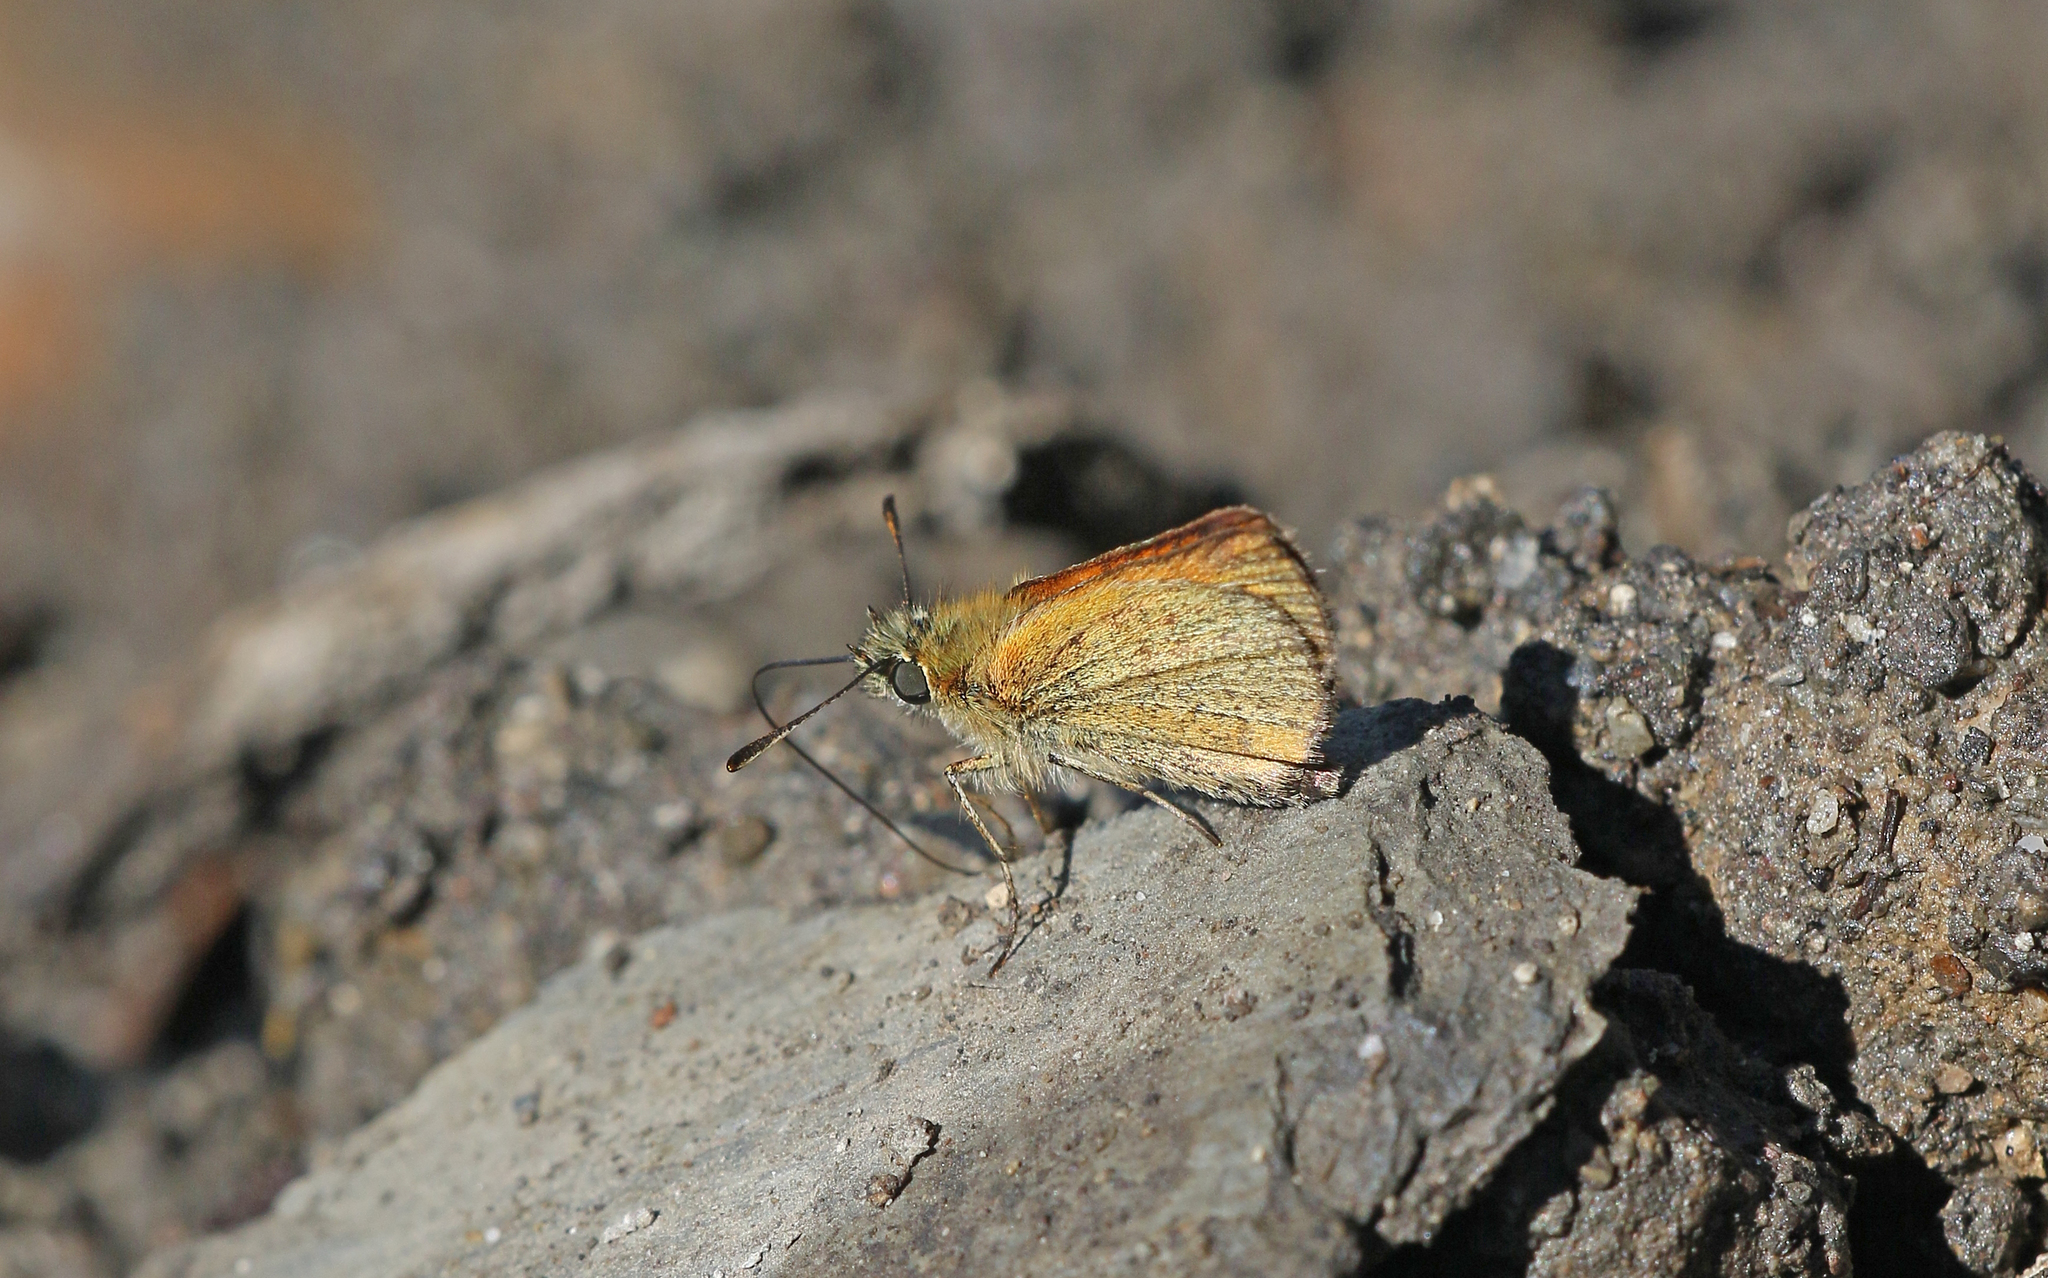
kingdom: Animalia
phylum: Arthropoda
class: Insecta
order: Lepidoptera
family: Hesperiidae
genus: Thymelicus
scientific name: Thymelicus lineola
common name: Essex skipper
